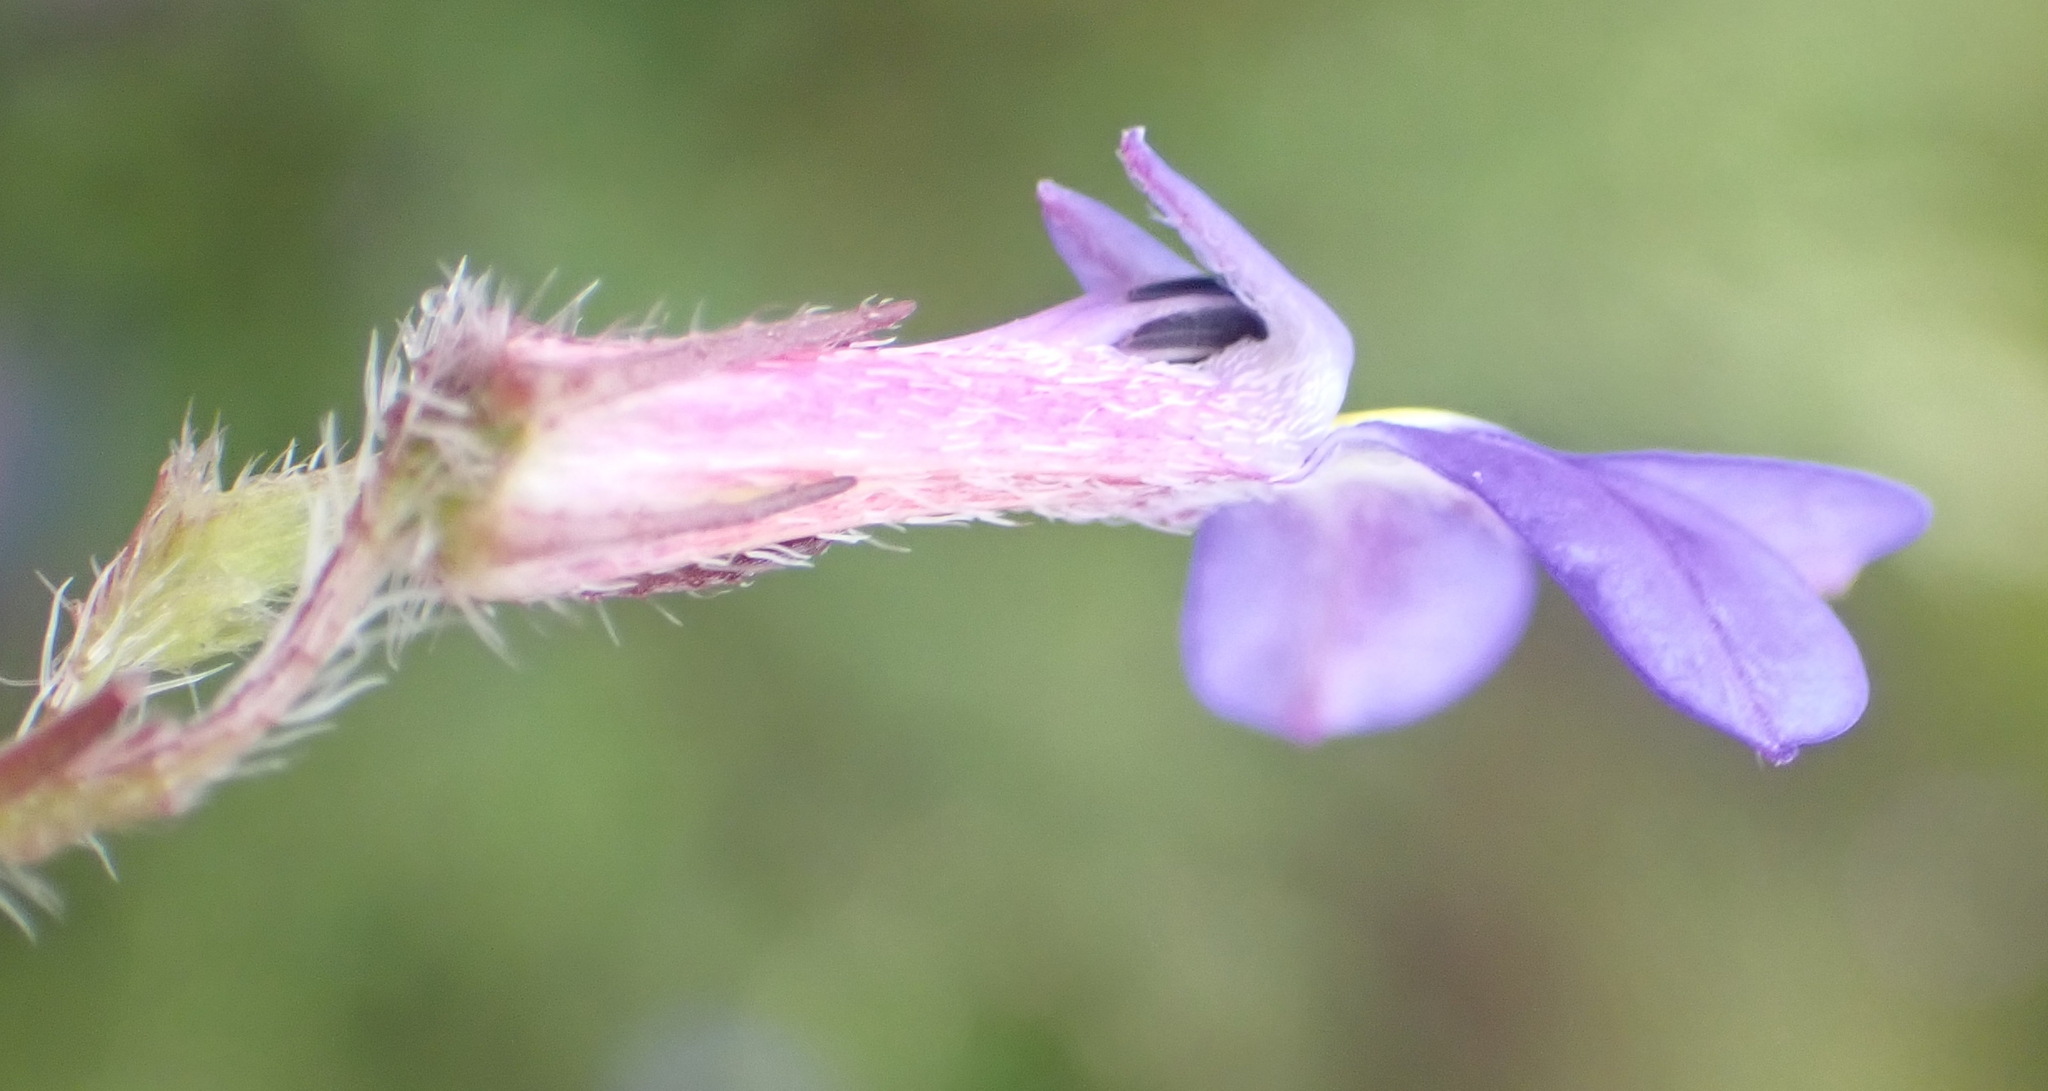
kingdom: Plantae
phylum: Tracheophyta
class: Magnoliopsida
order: Asterales
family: Campanulaceae
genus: Lobelia
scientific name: Lobelia neglecta
